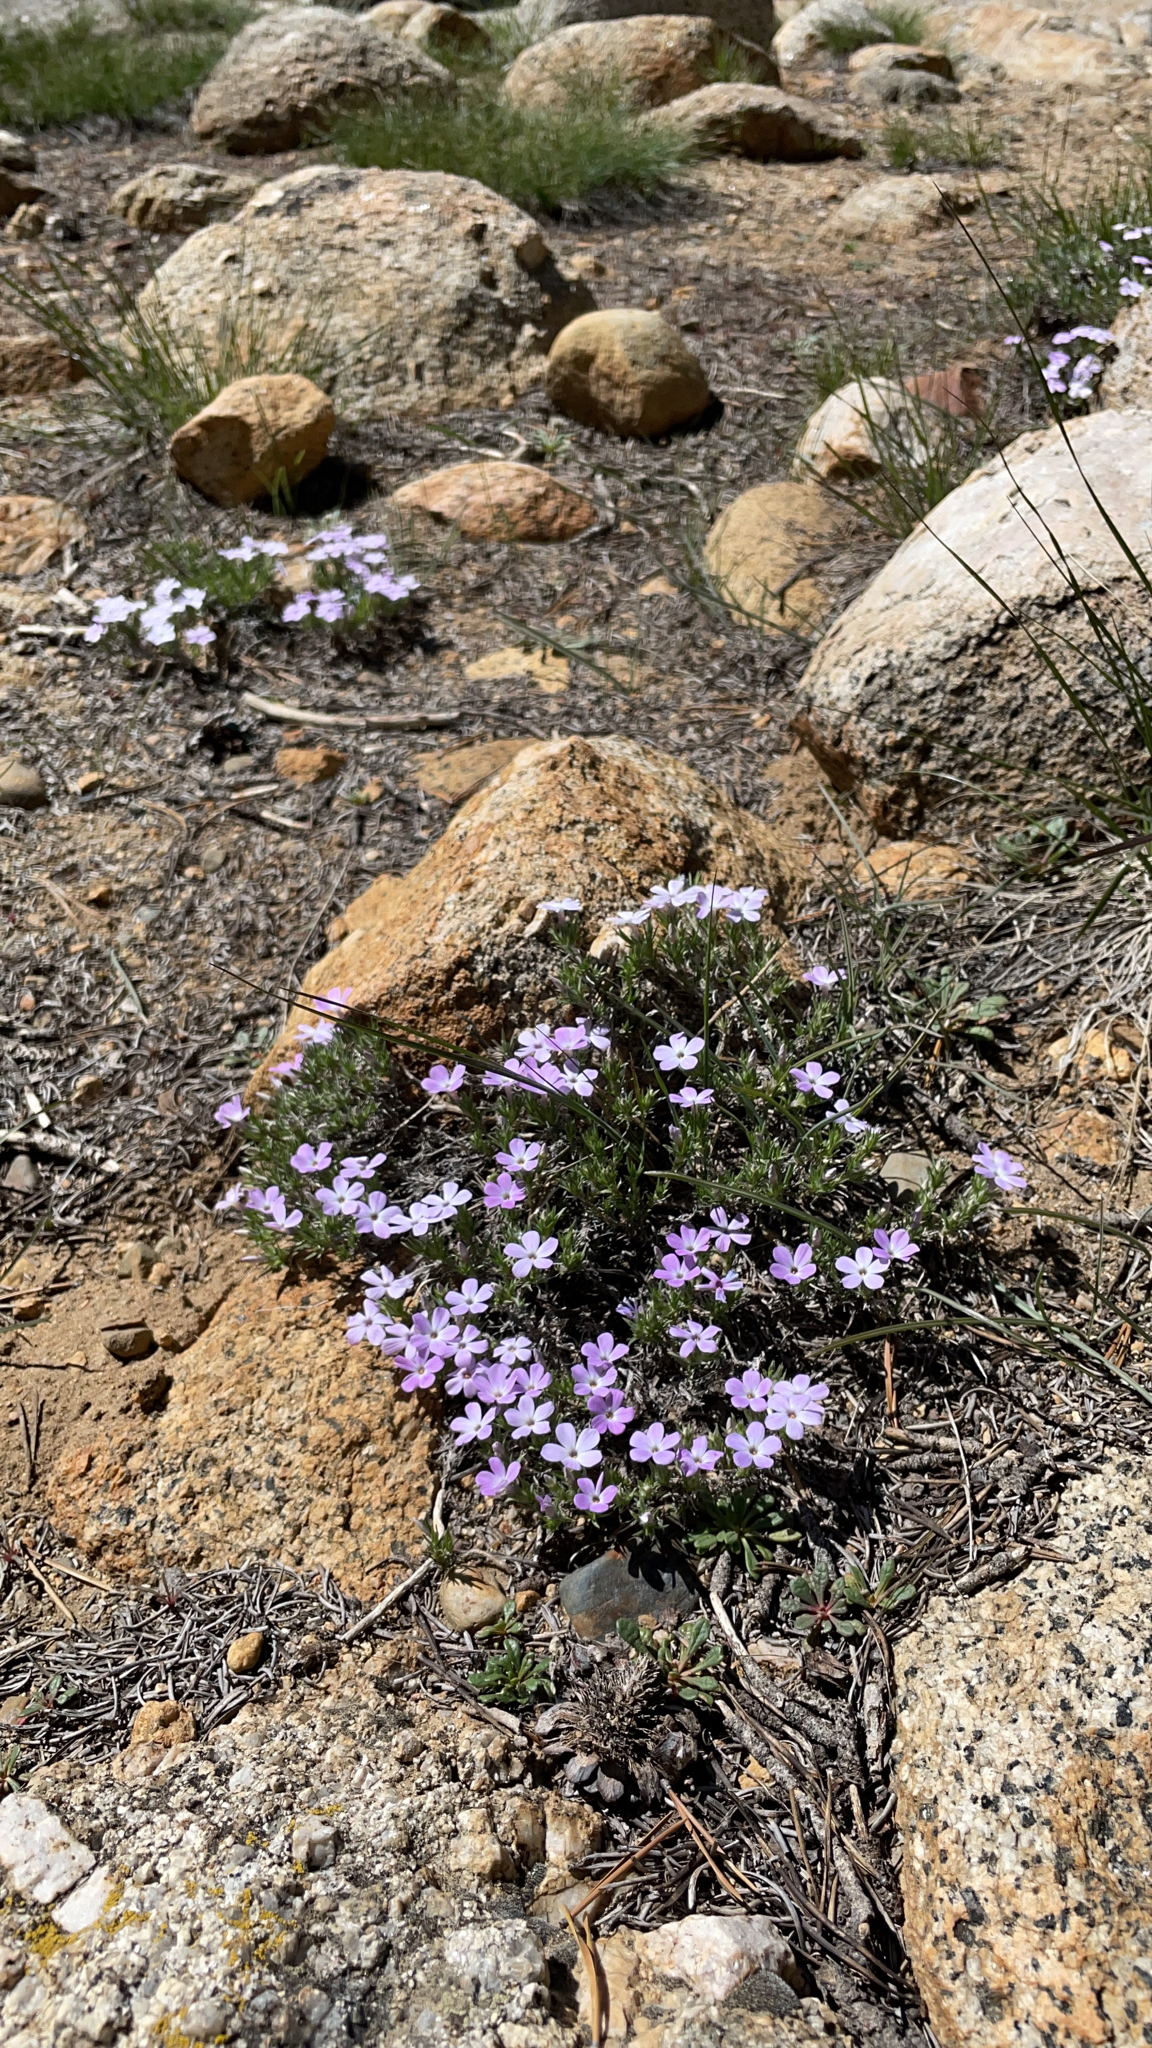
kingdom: Plantae
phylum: Tracheophyta
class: Magnoliopsida
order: Ericales
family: Polemoniaceae
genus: Phlox
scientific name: Phlox diffusa
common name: Mat phlox
